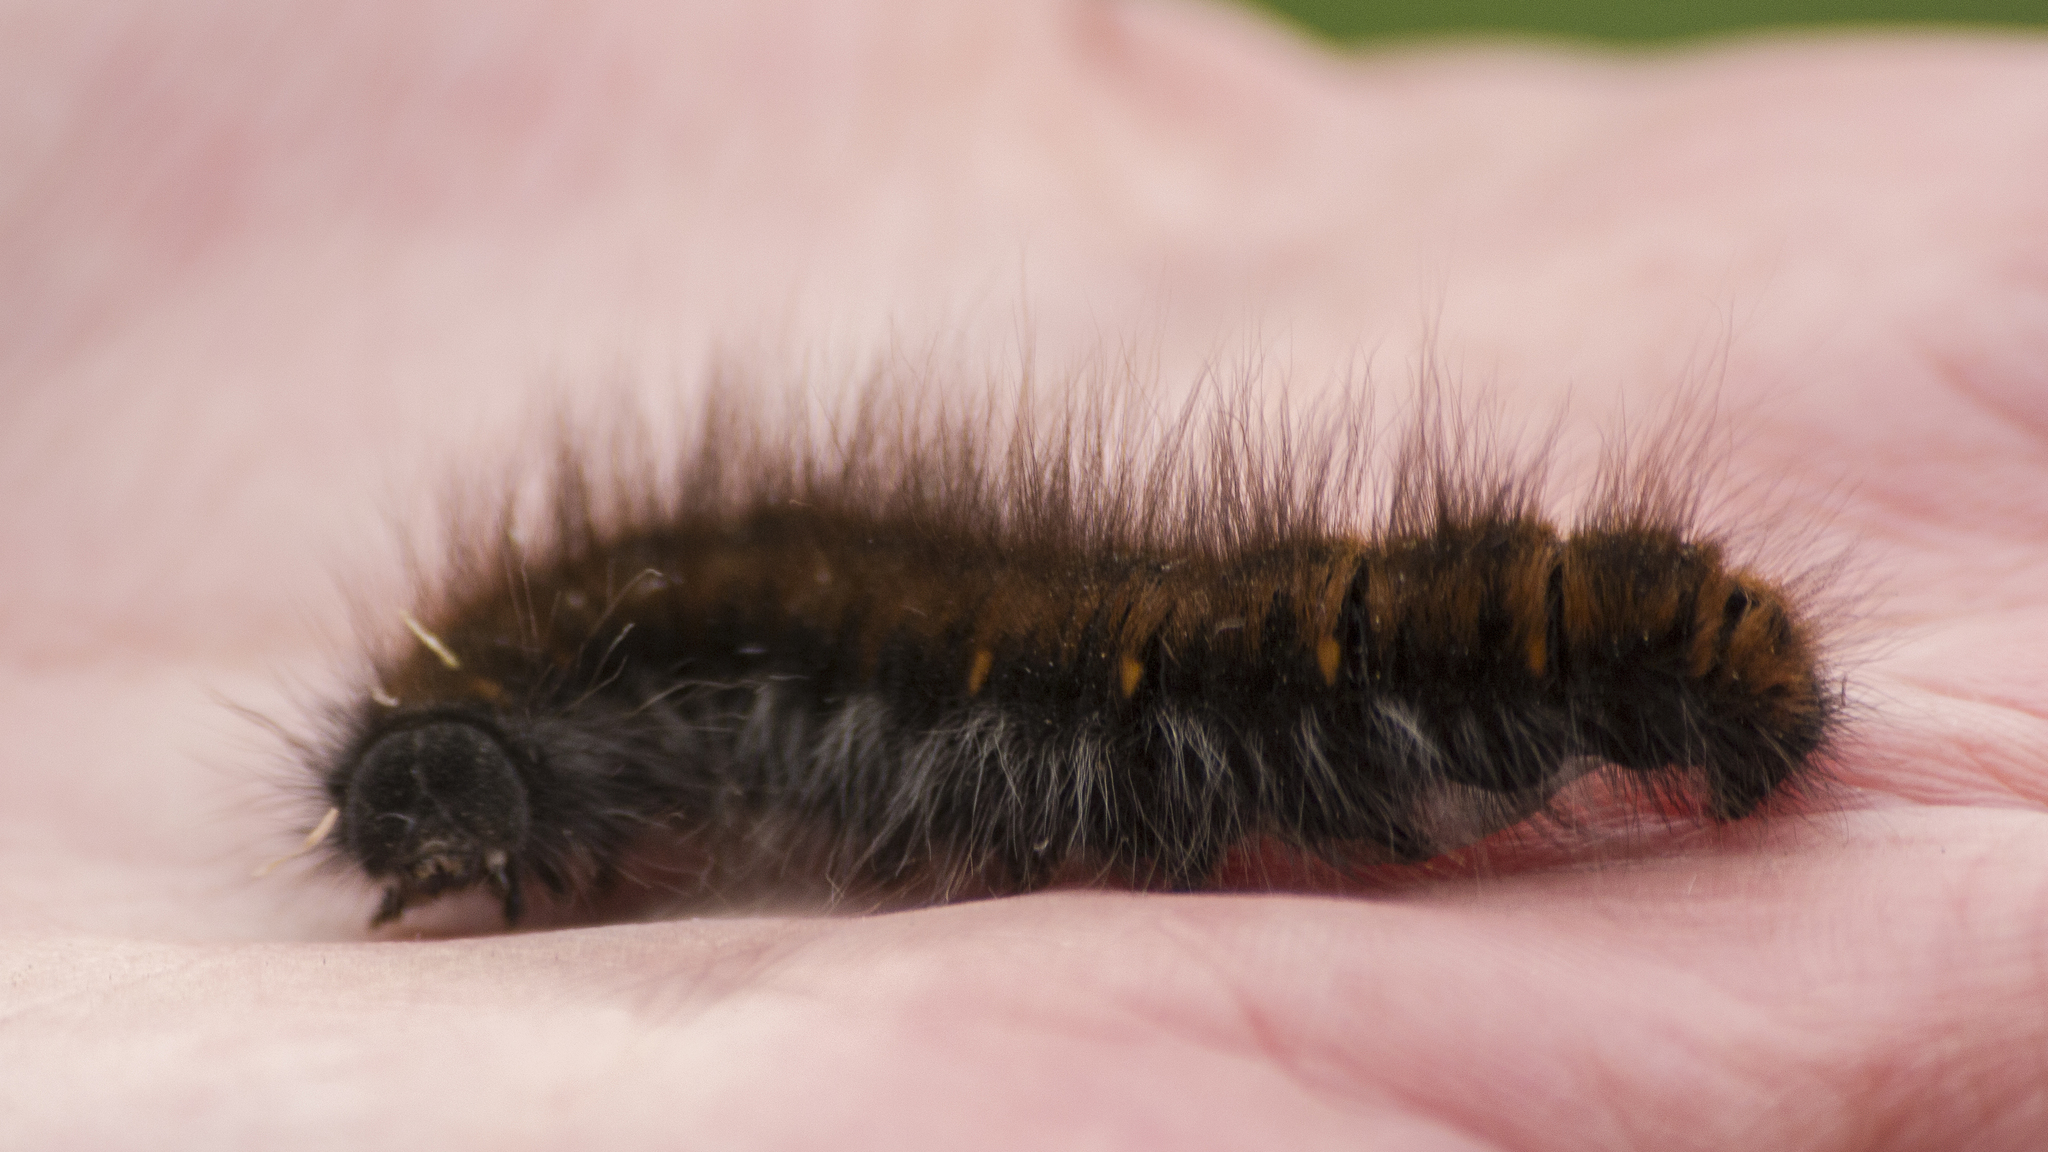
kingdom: Animalia
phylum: Arthropoda
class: Insecta
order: Lepidoptera
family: Lasiocampidae
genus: Macrothylacia
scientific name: Macrothylacia rubi
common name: Fox moth
